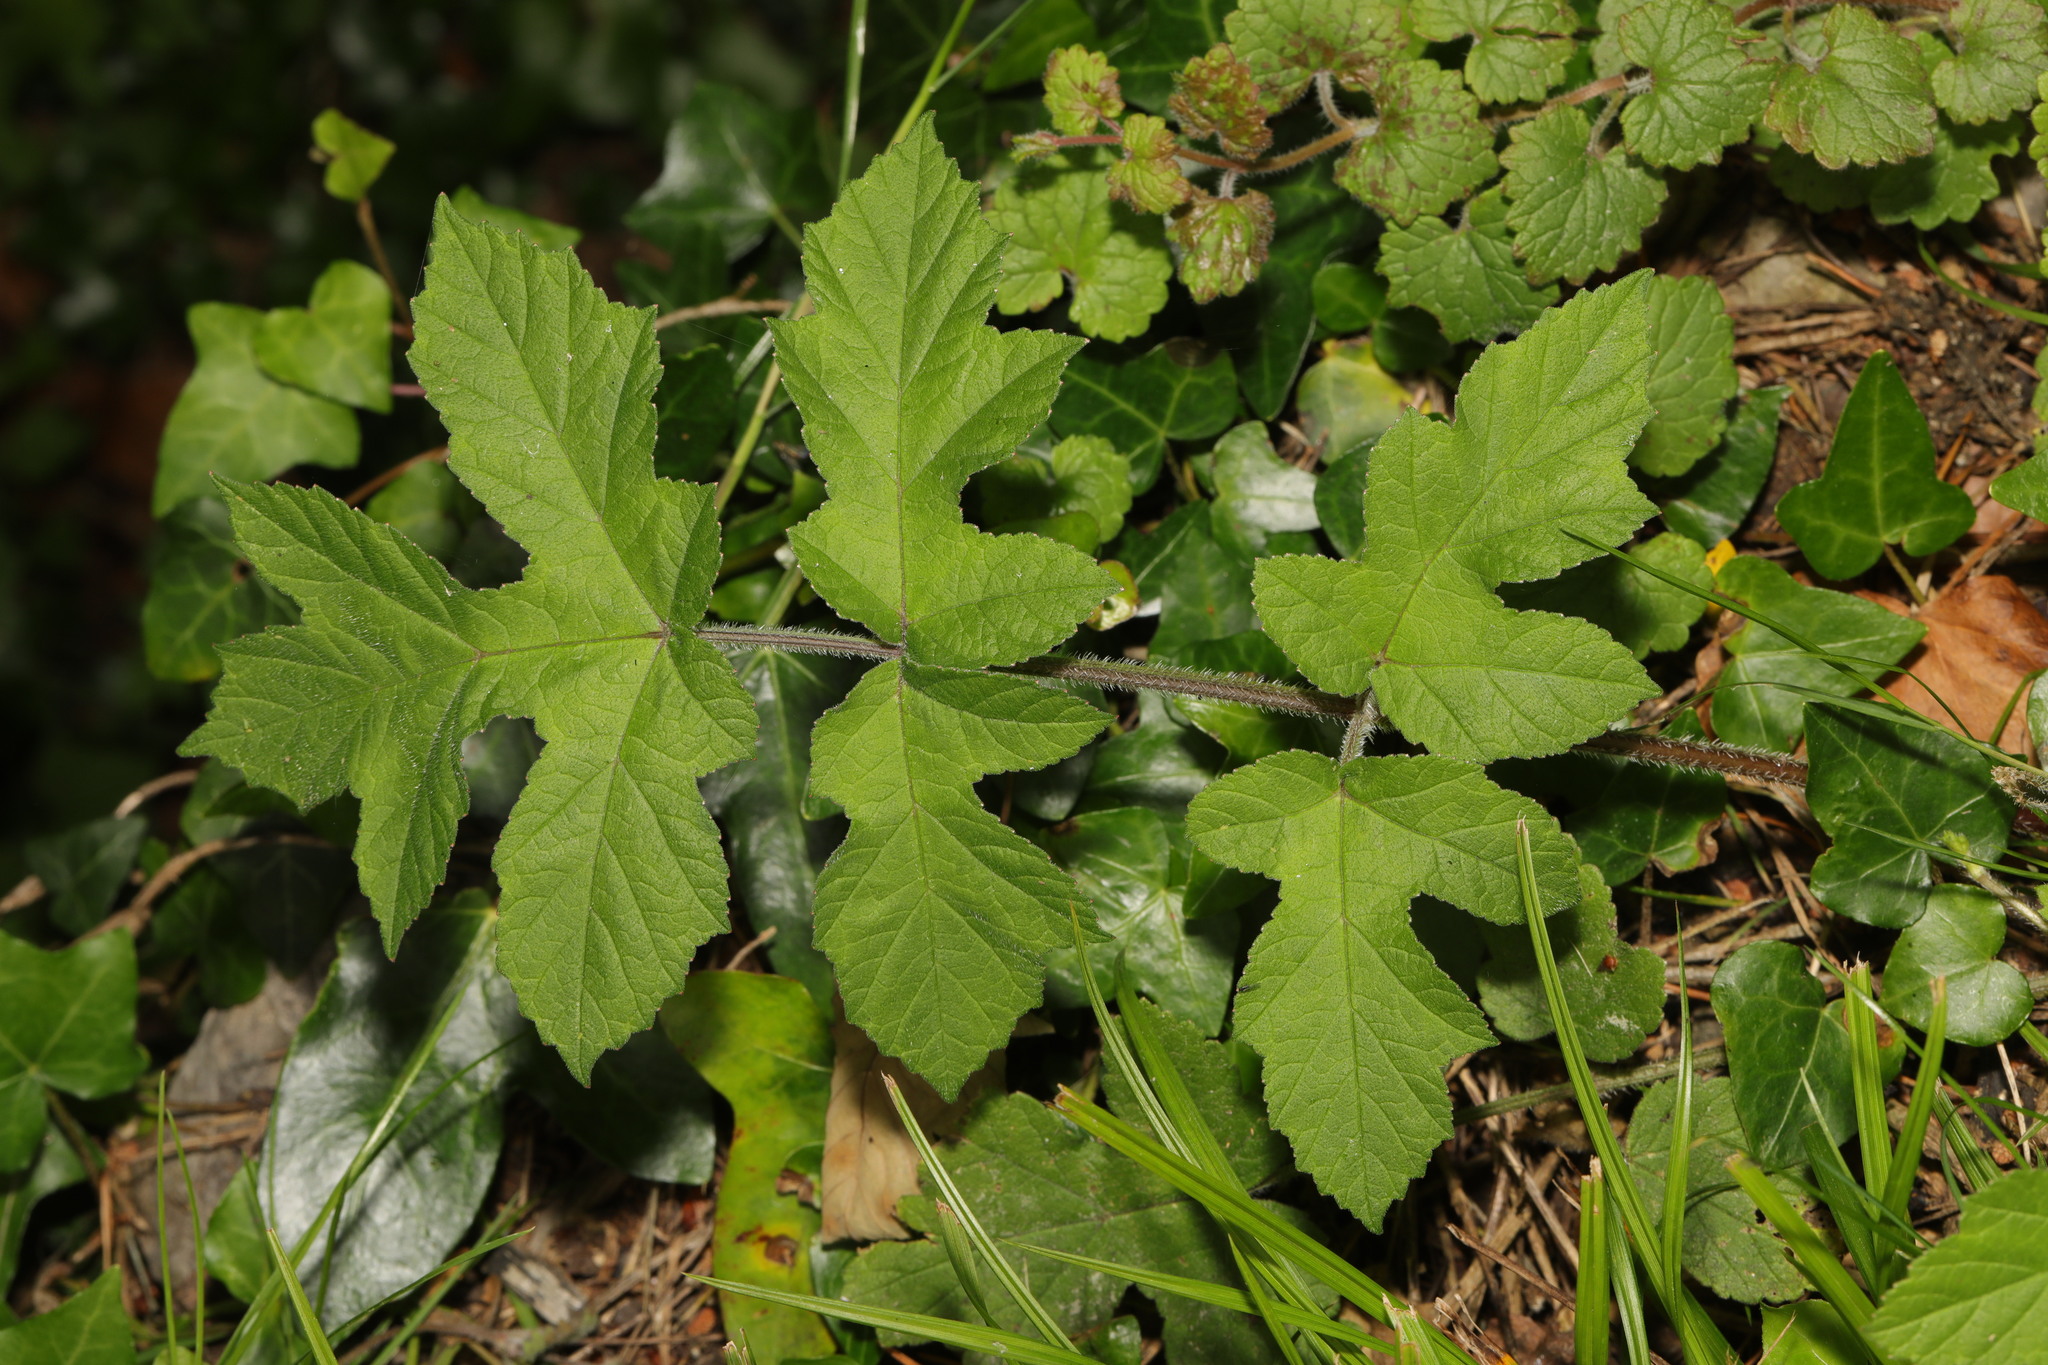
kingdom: Plantae
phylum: Tracheophyta
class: Magnoliopsida
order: Apiales
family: Apiaceae
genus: Heracleum
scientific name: Heracleum sphondylium
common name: Hogweed
